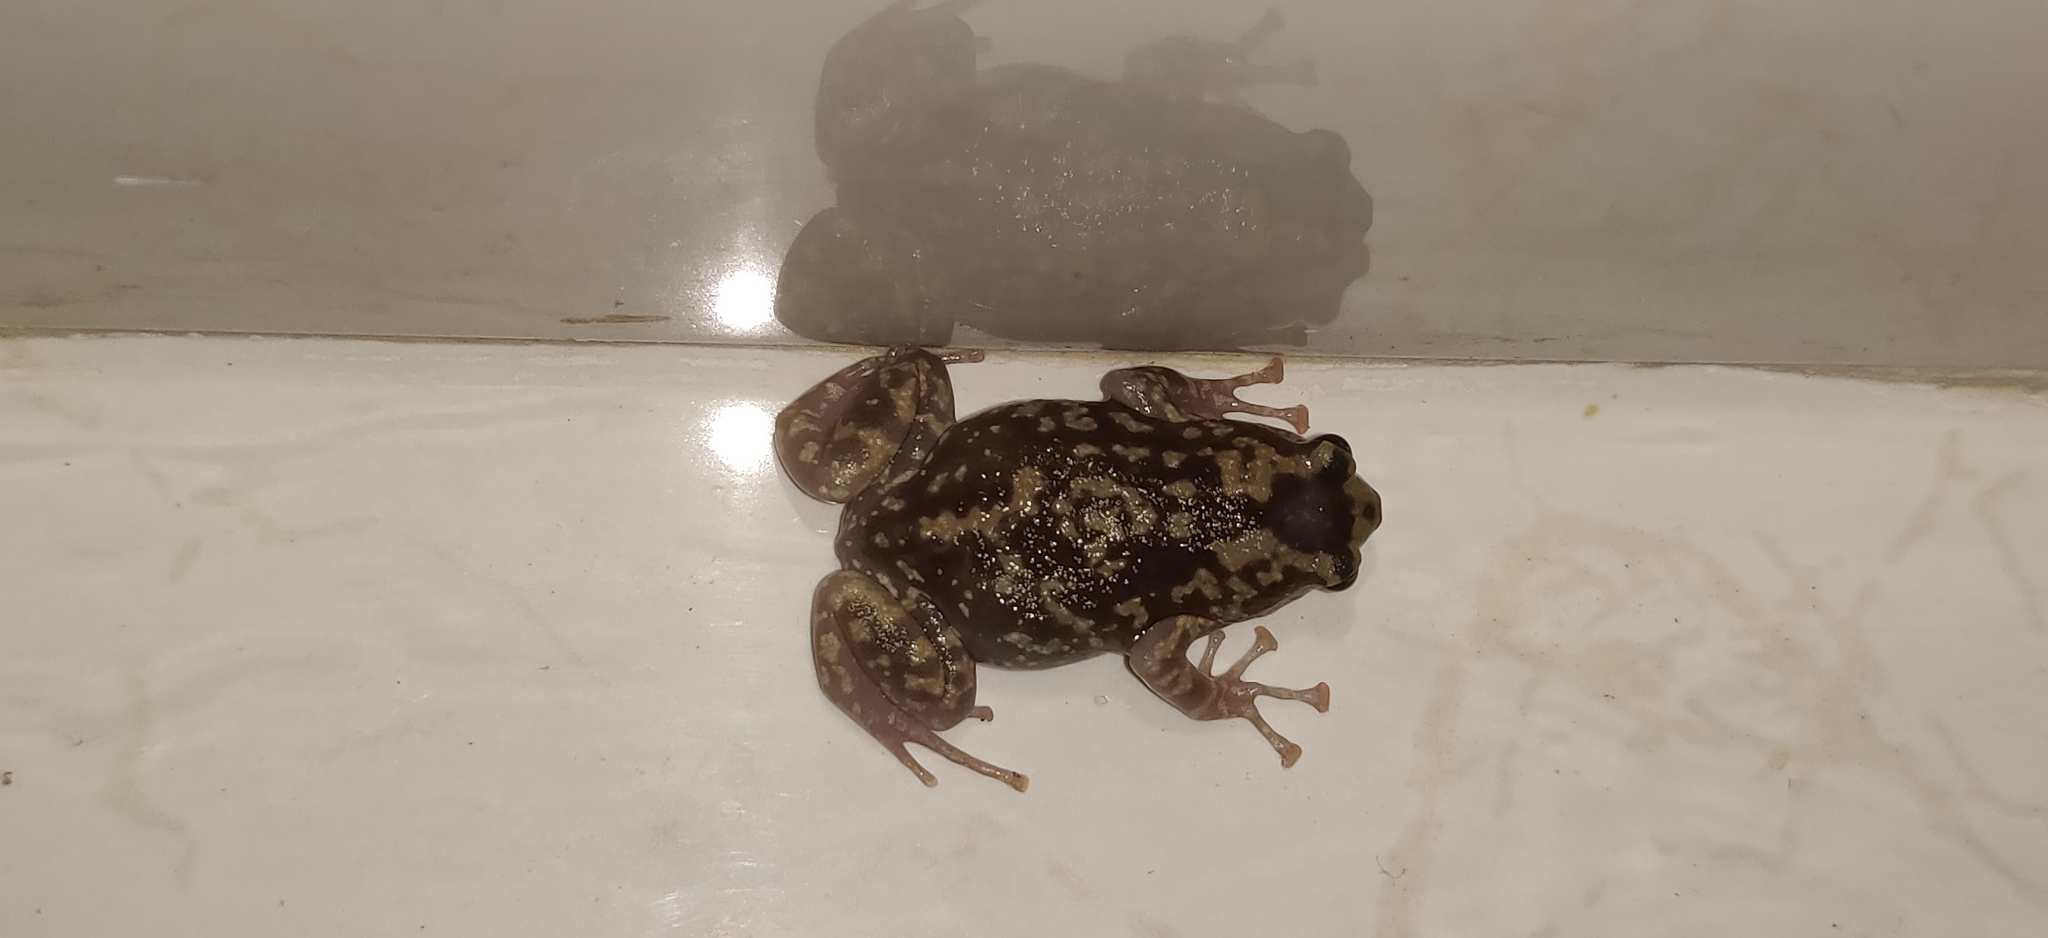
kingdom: Animalia
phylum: Chordata
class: Amphibia
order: Anura
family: Microhylidae
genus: Uperodon
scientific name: Uperodon variegatus
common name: Eluru dot frog
